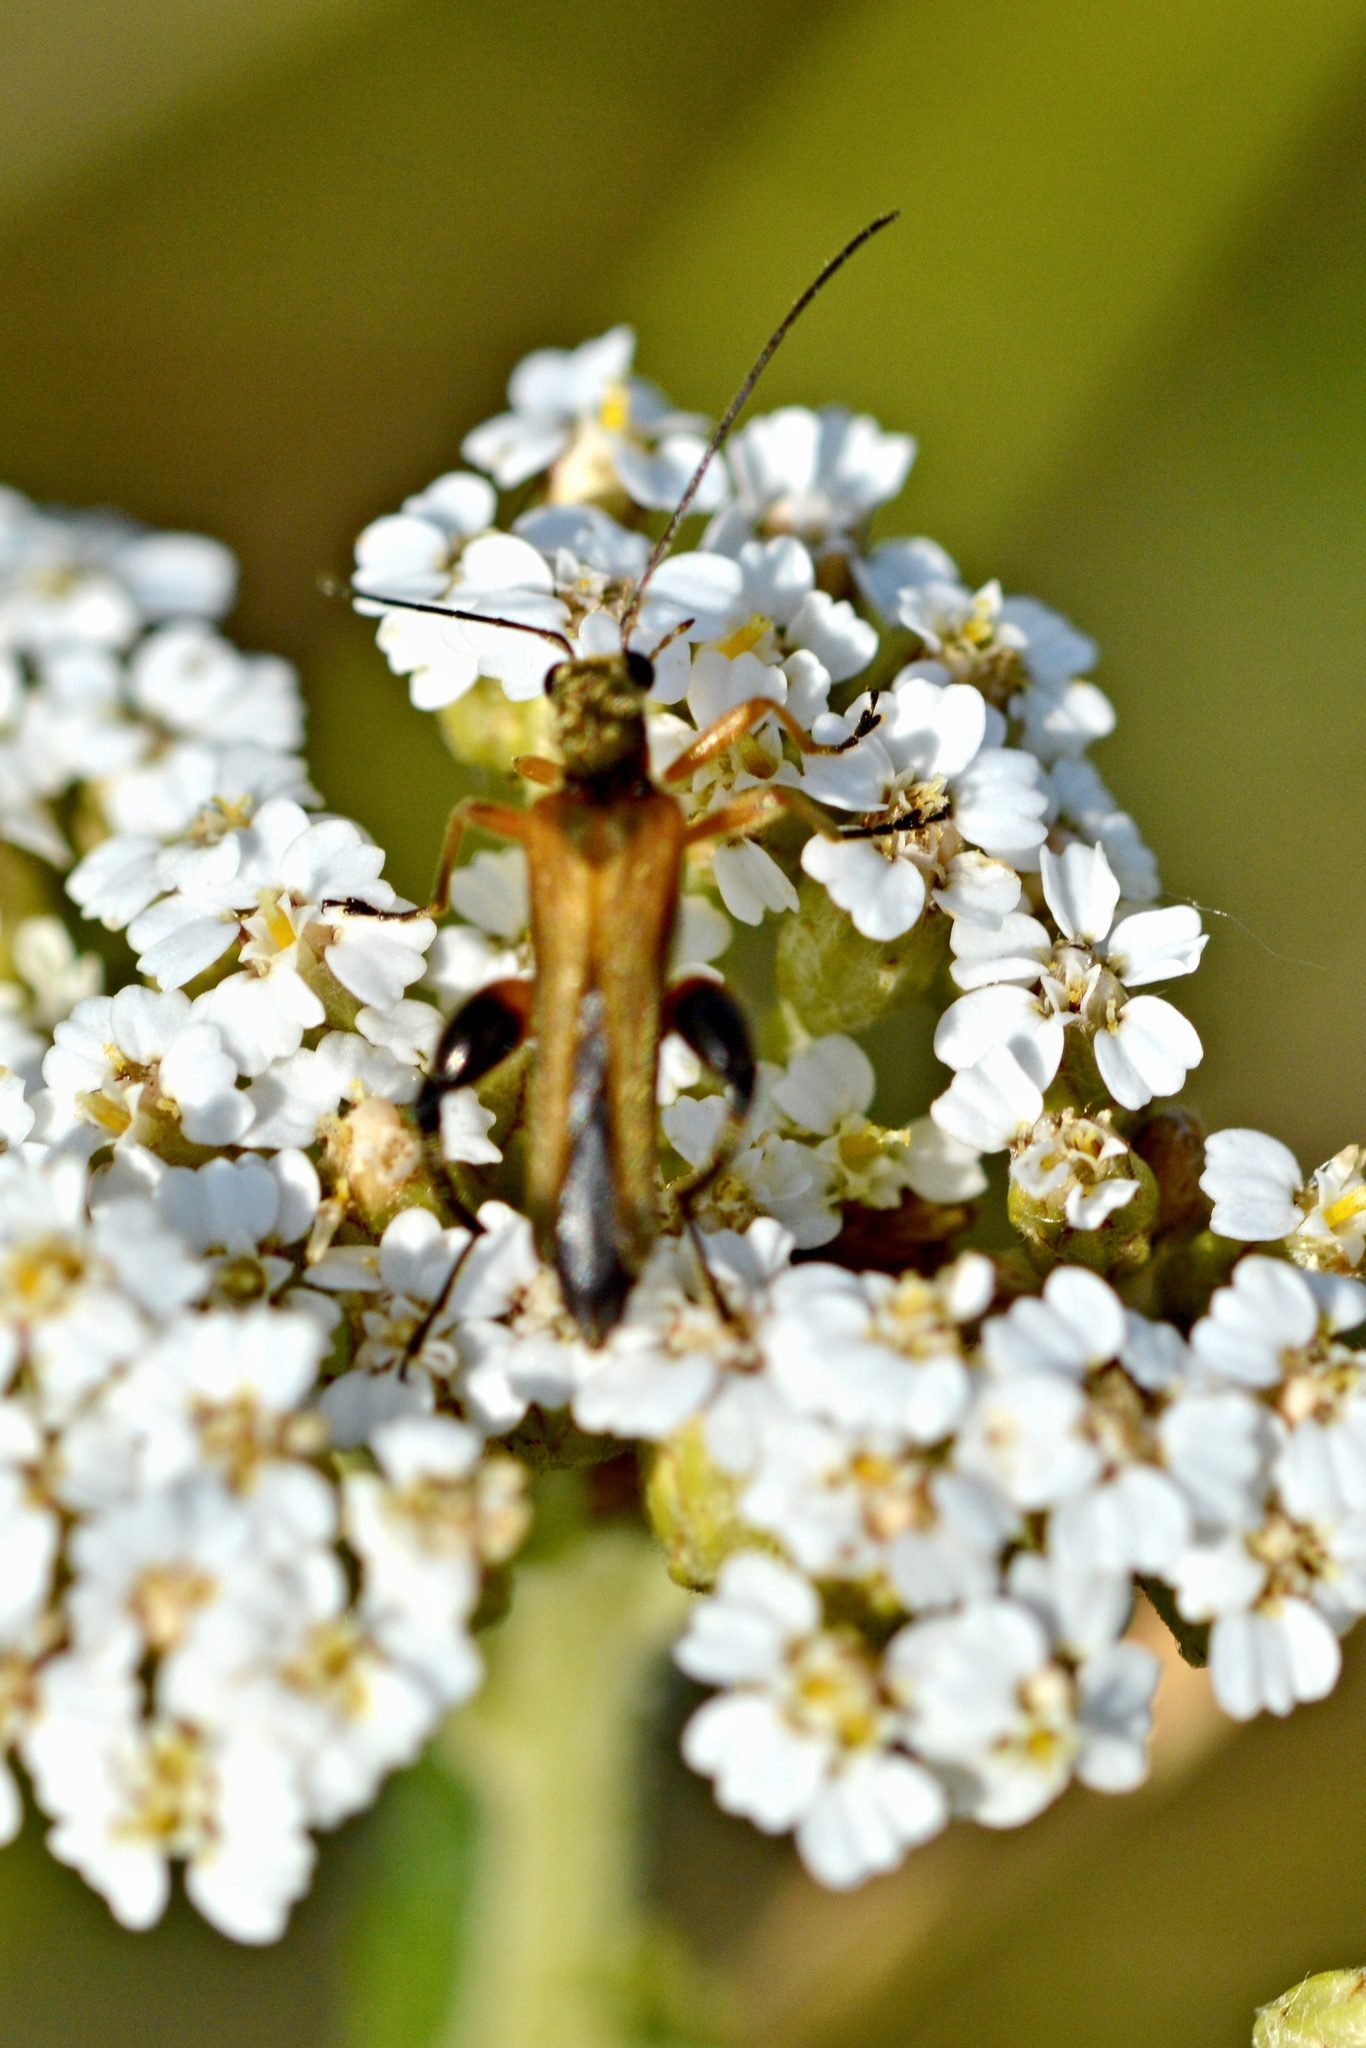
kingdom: Animalia
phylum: Arthropoda
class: Insecta
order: Coleoptera
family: Oedemeridae
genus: Oedemera
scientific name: Oedemera podagrariae
